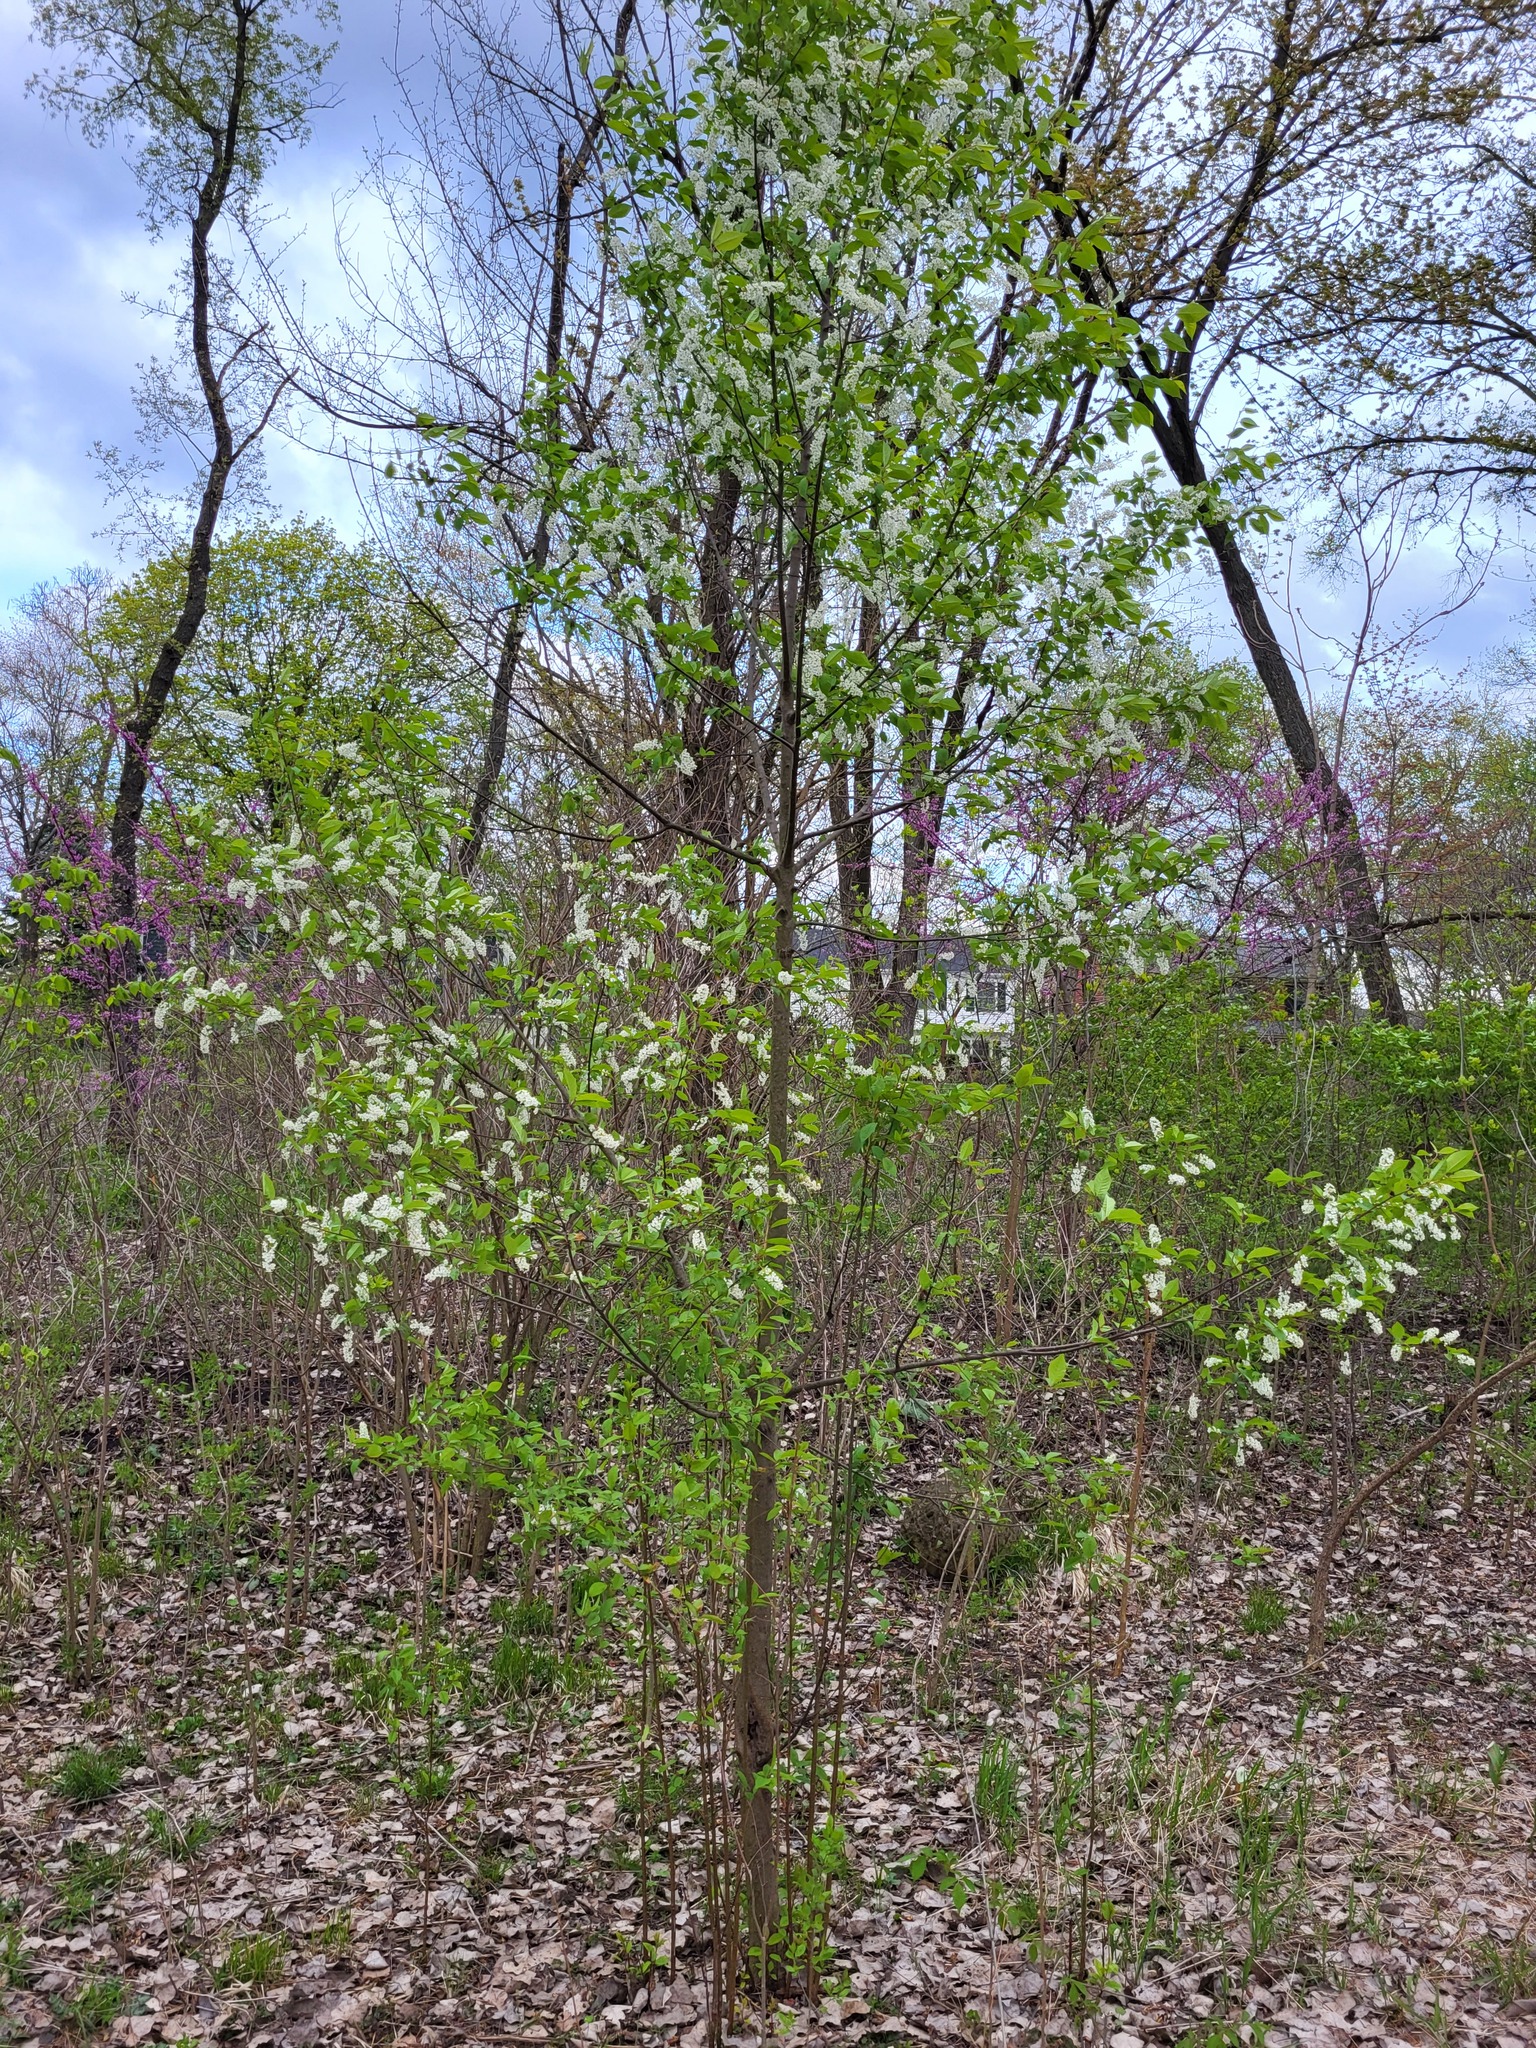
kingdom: Plantae
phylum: Tracheophyta
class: Magnoliopsida
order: Rosales
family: Rosaceae
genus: Prunus
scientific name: Prunus padus
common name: Bird cherry
